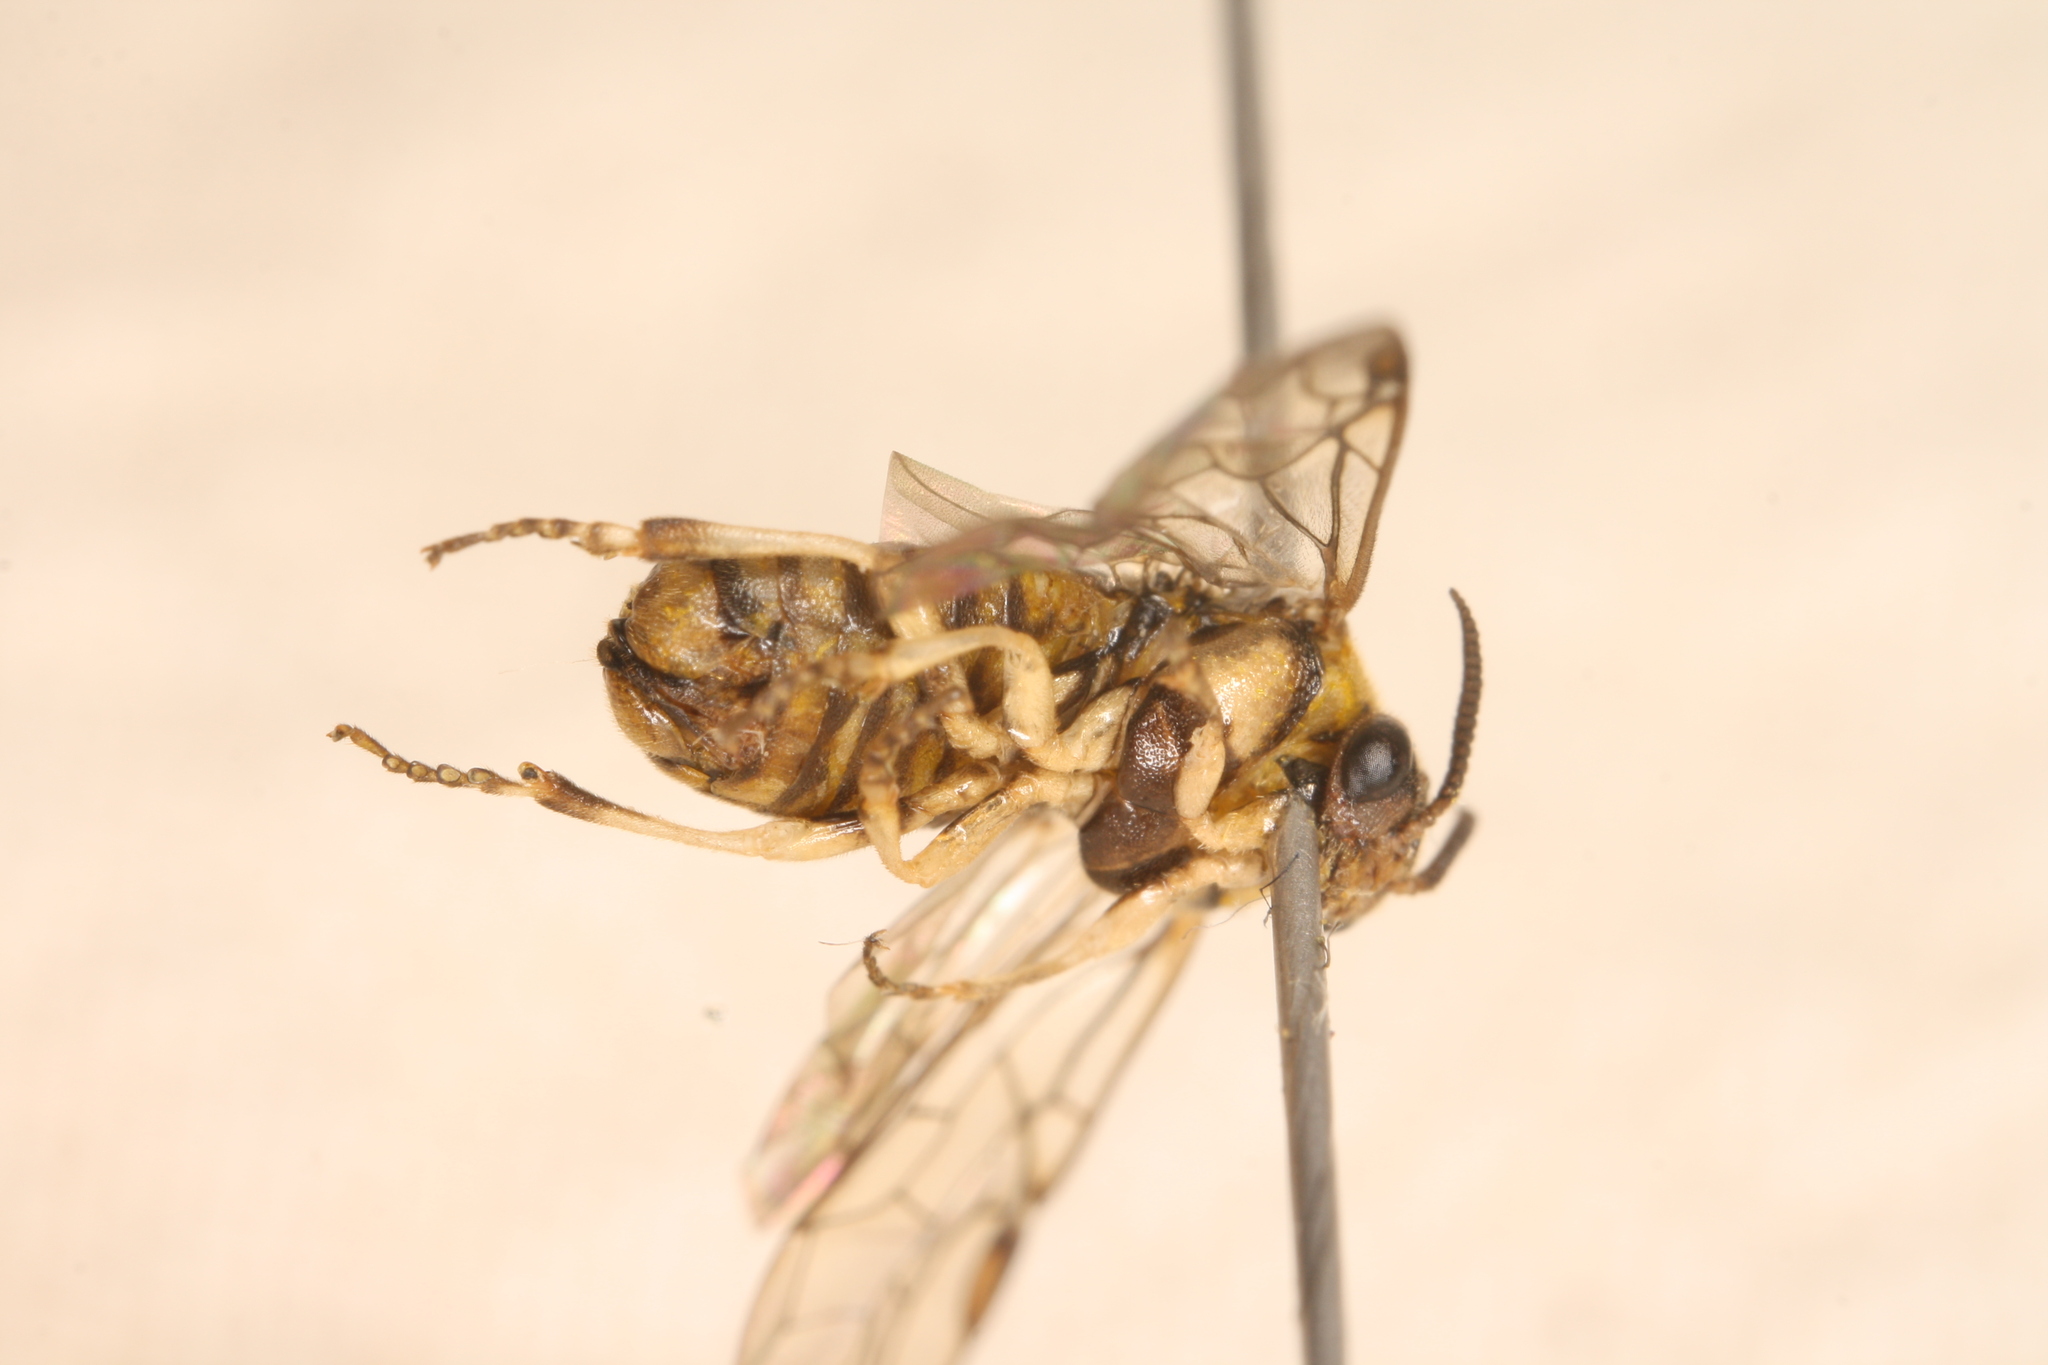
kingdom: Animalia
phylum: Arthropoda
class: Insecta
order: Hymenoptera
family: Diprionidae
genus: Gilpinia
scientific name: Gilpinia hercyniae
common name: European spruce sawfly
